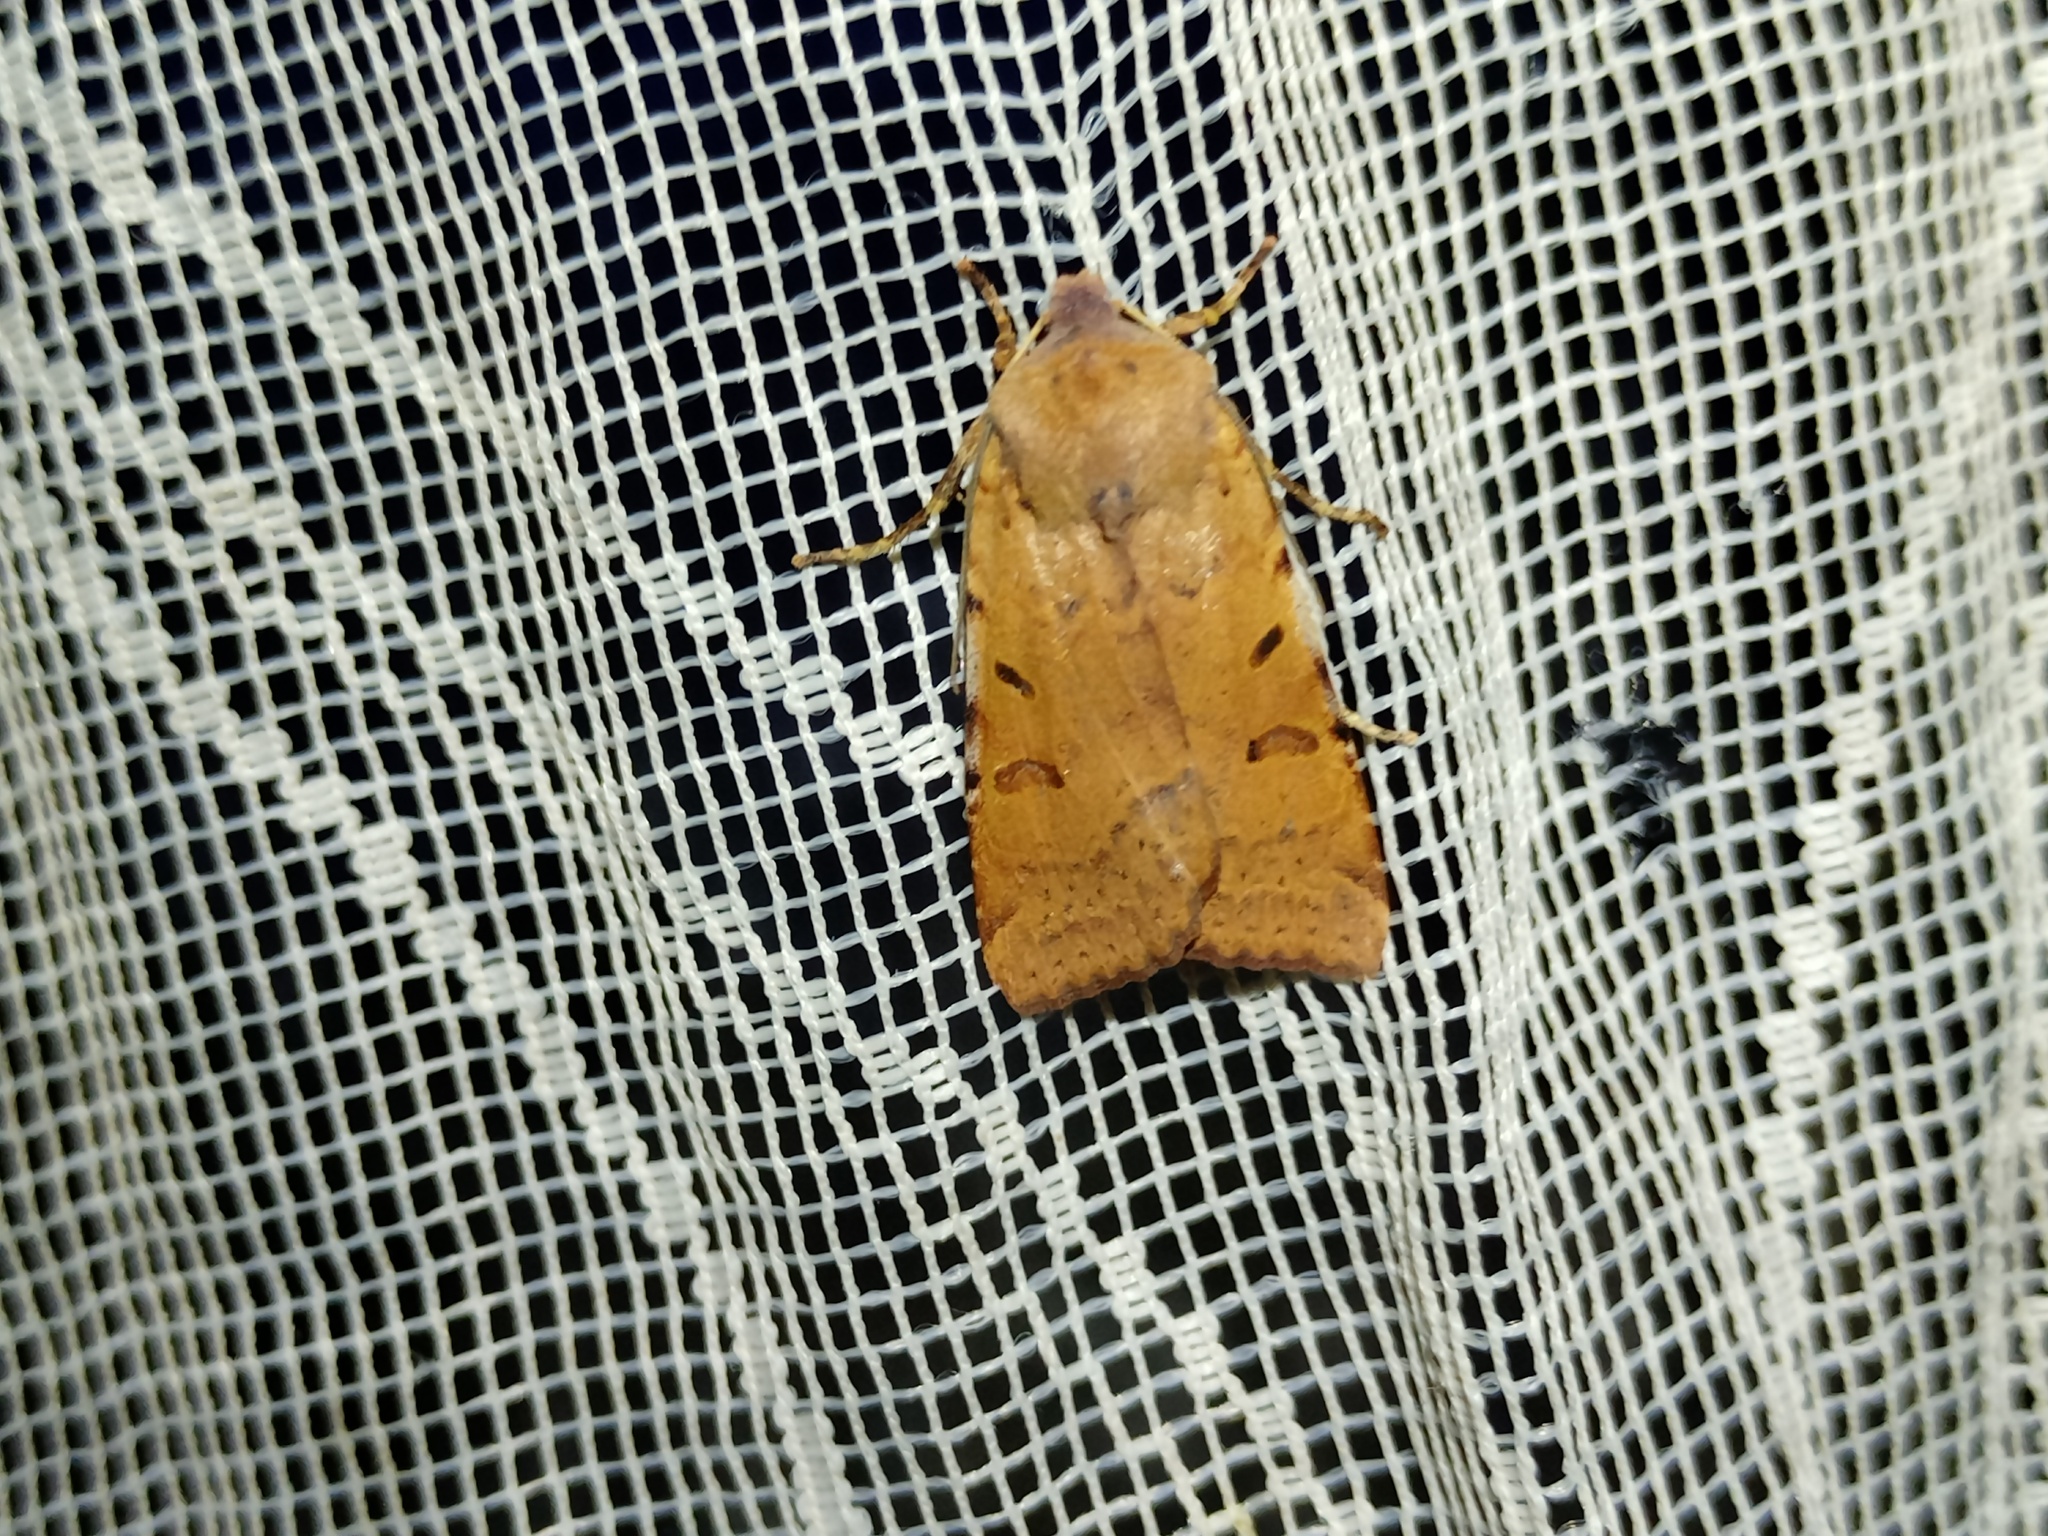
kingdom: Animalia
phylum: Arthropoda
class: Insecta
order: Lepidoptera
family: Noctuidae
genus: Agrochola
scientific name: Agrochola lychnidis
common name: Beaded chestnut
